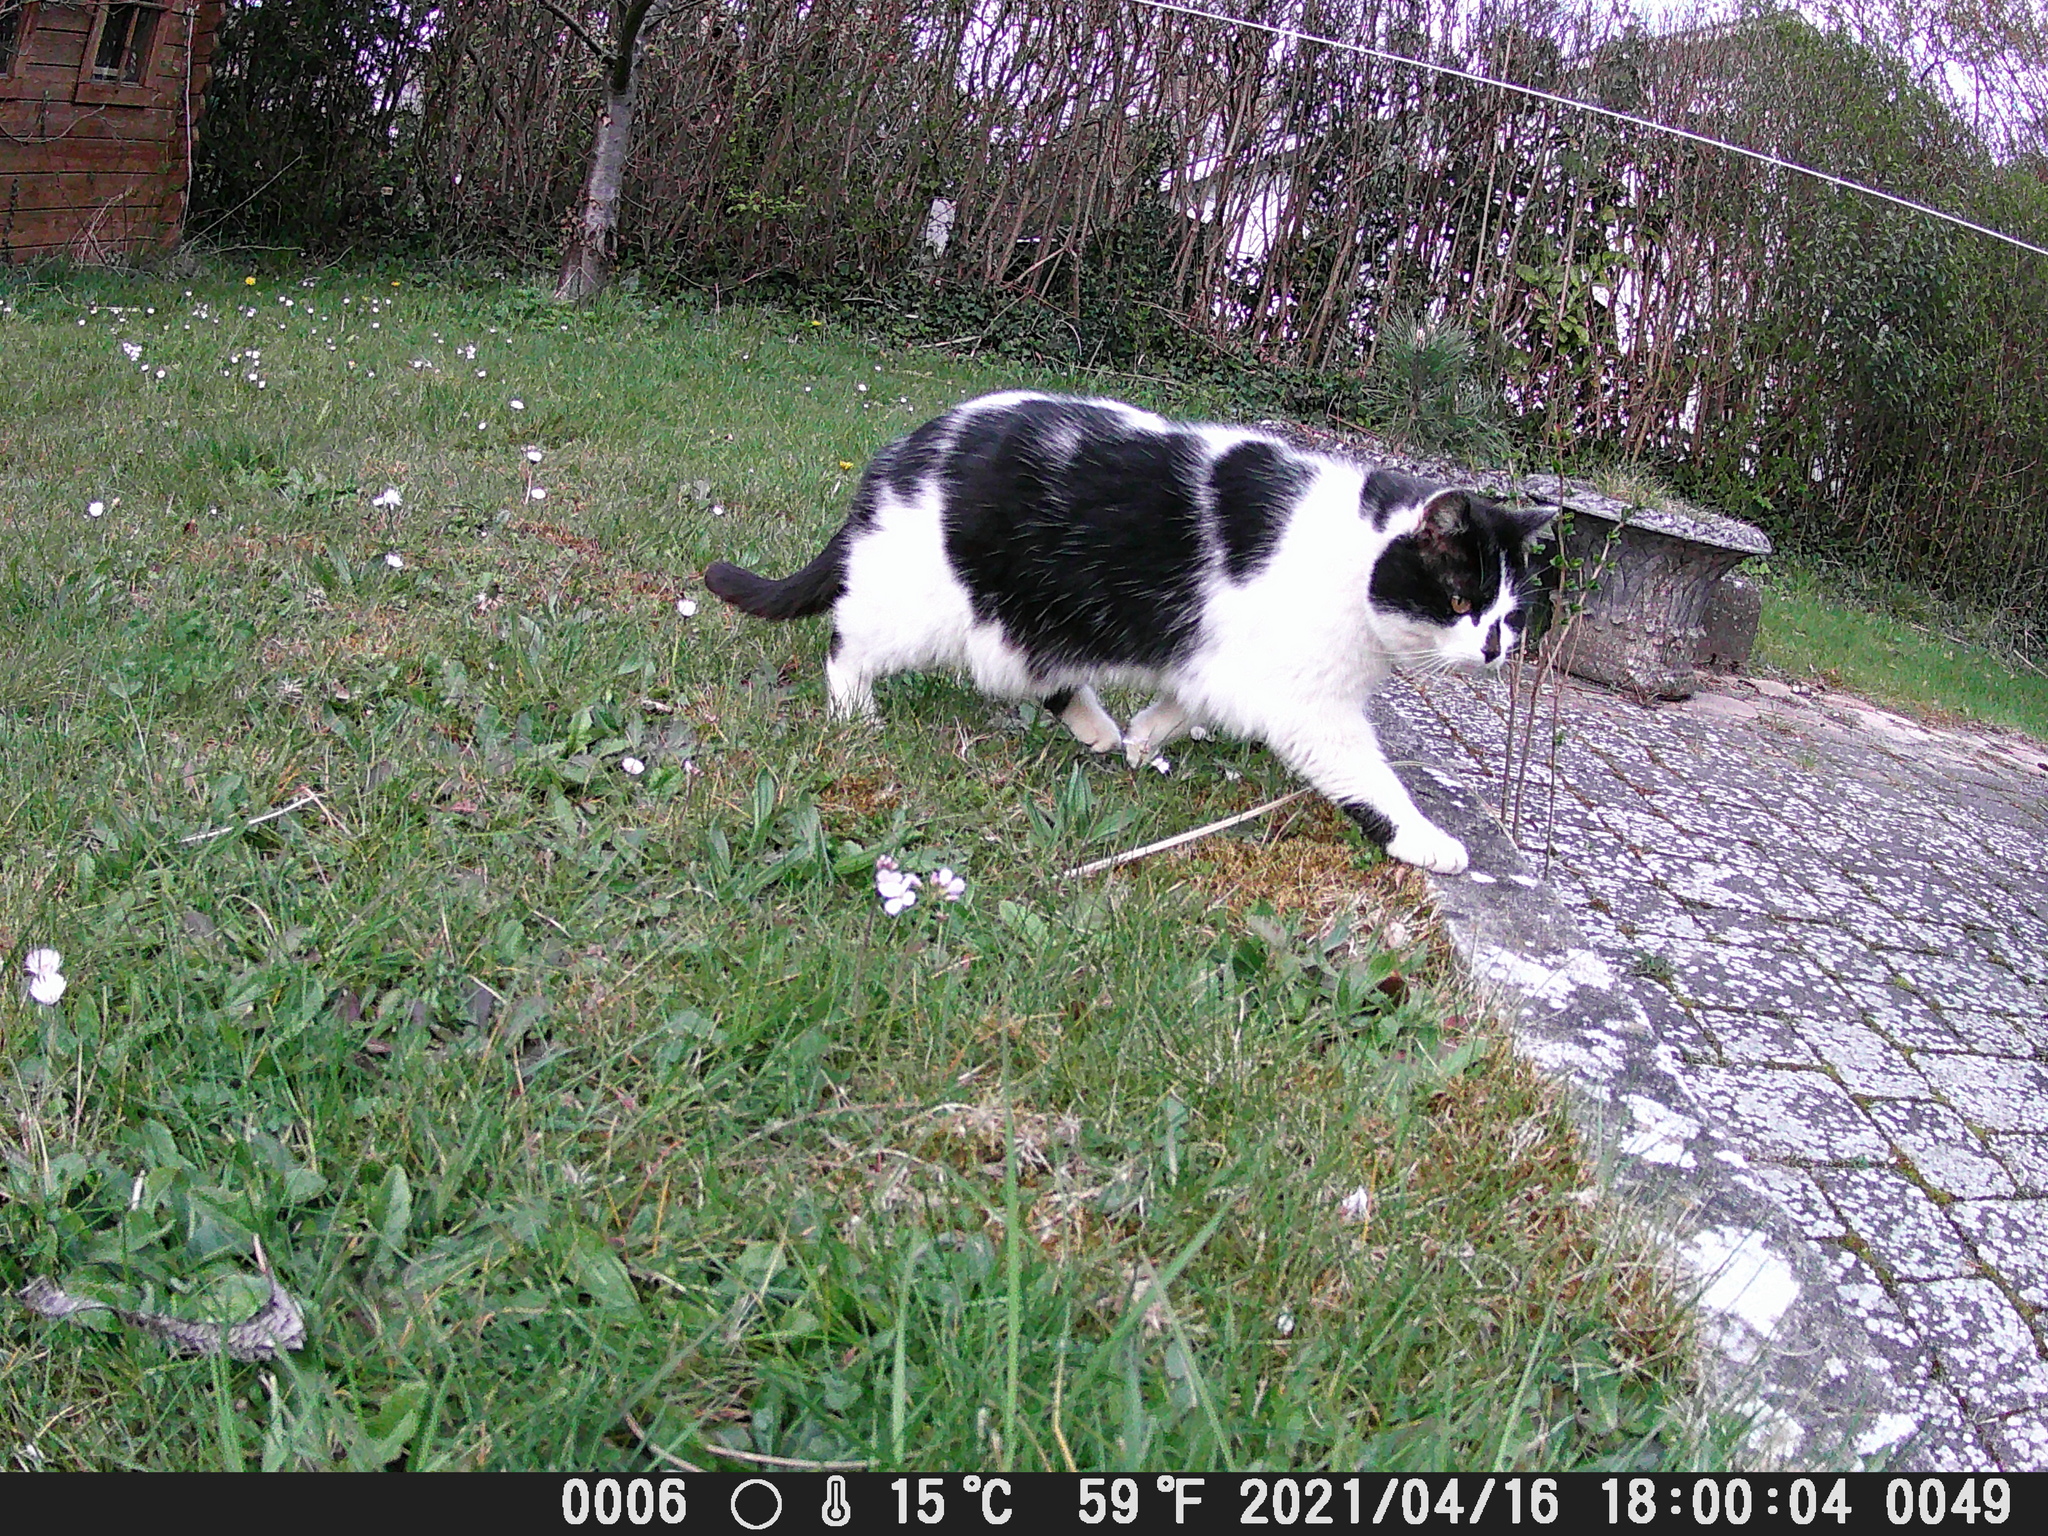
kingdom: Animalia
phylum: Chordata
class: Mammalia
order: Carnivora
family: Felidae
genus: Felis
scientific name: Felis catus
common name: Domestic cat
